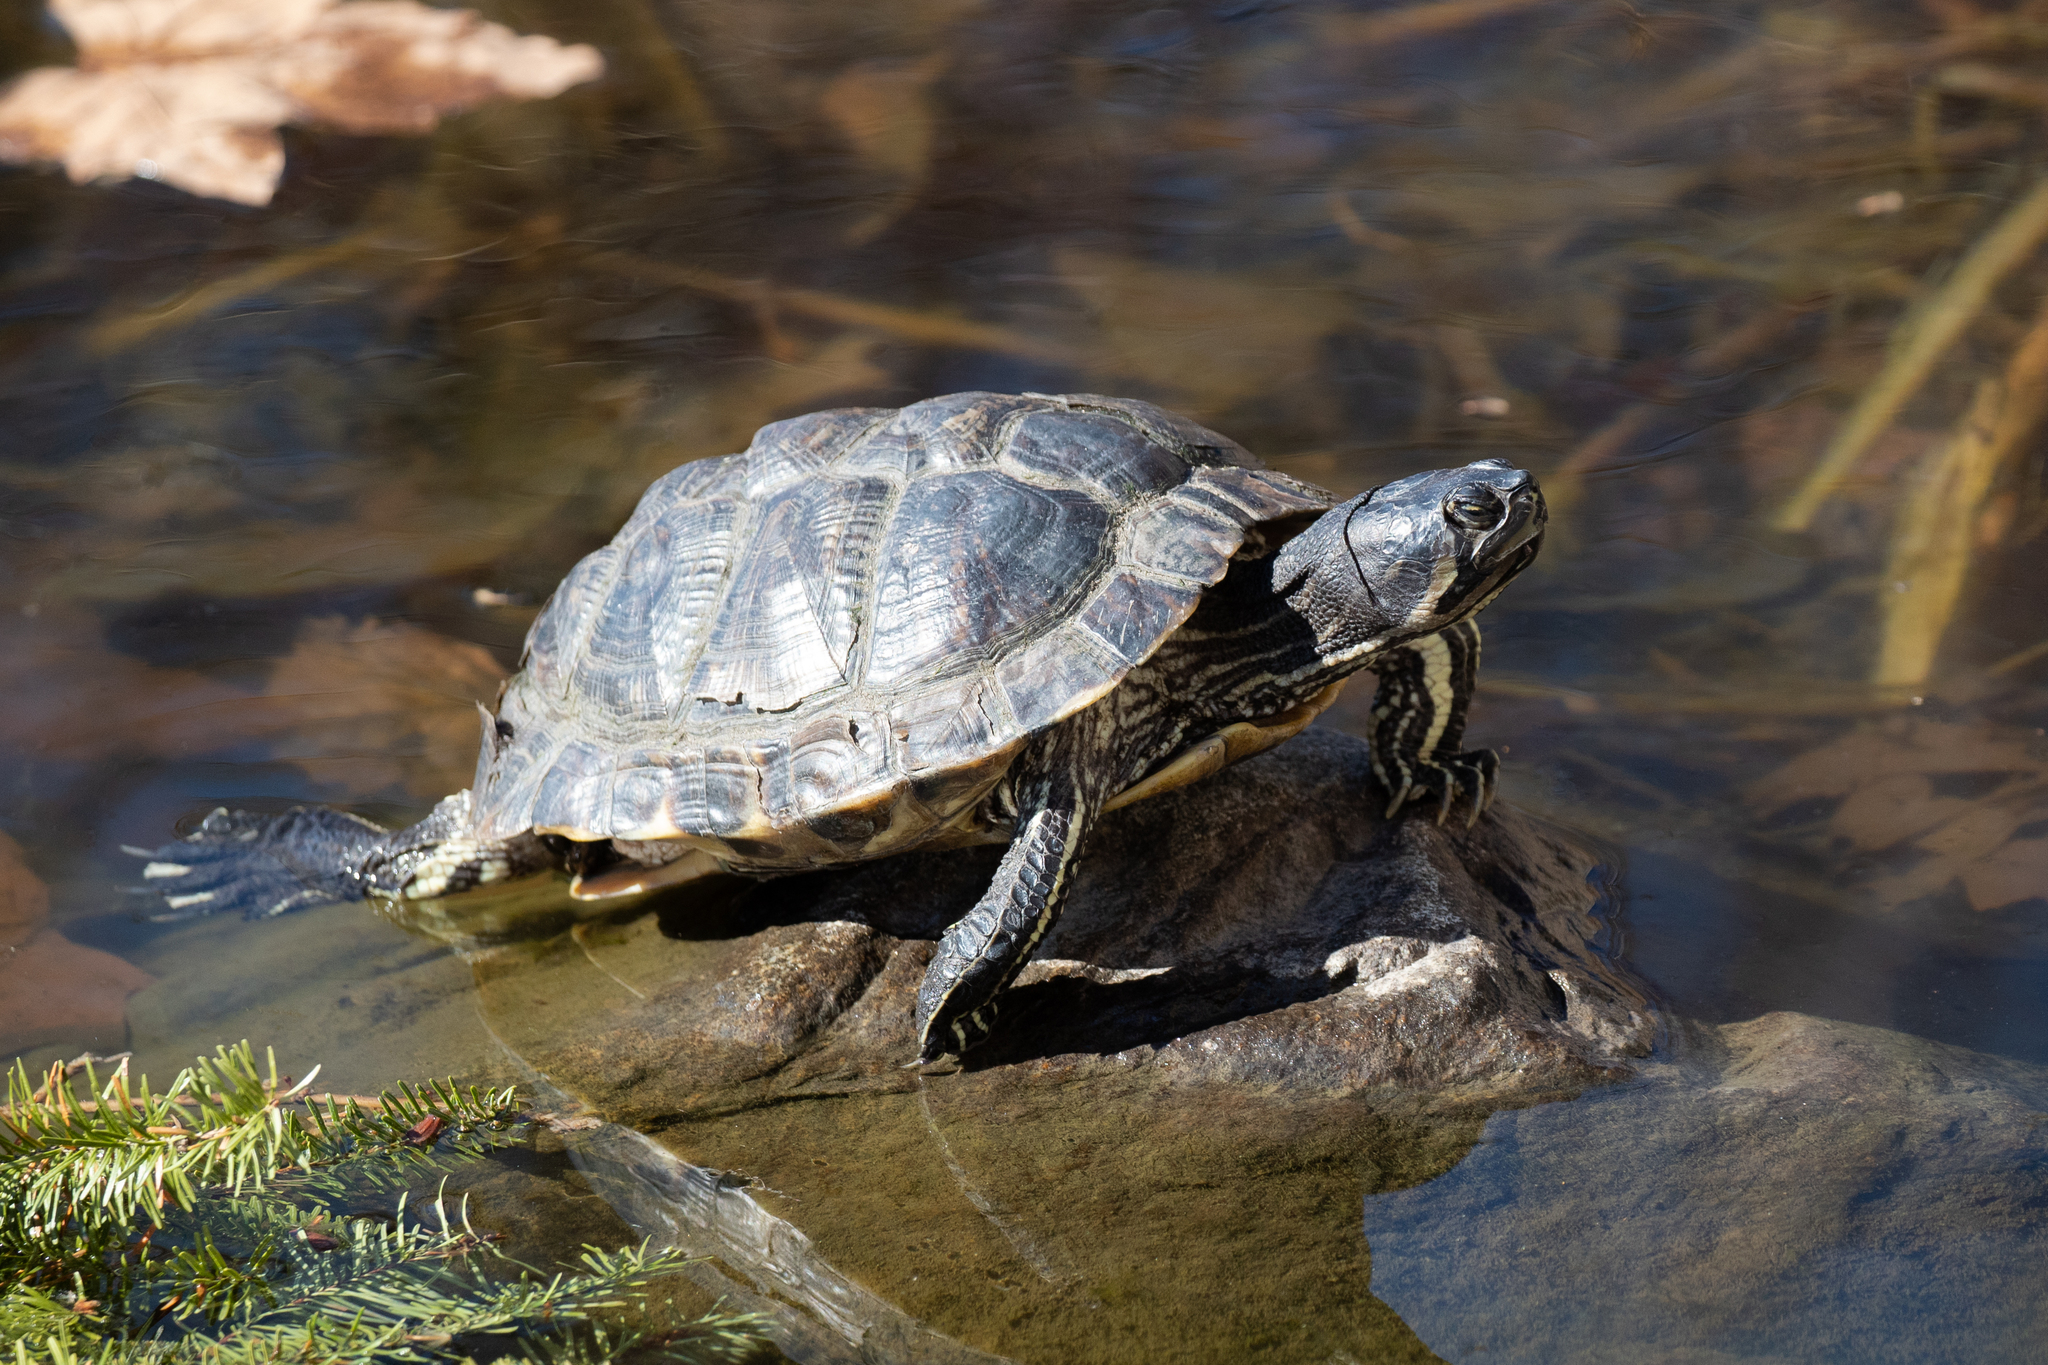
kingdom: Animalia
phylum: Chordata
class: Testudines
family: Emydidae
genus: Trachemys
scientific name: Trachemys scripta
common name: Slider
